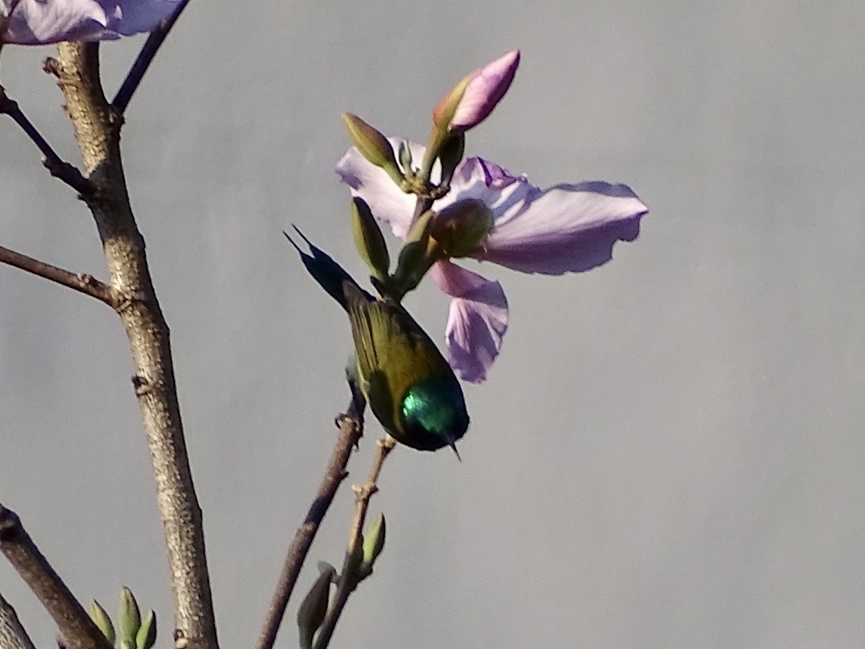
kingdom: Animalia
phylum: Chordata
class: Aves
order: Passeriformes
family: Nectariniidae
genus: Aethopyga
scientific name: Aethopyga christinae
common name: Fork-tailed sunbird
